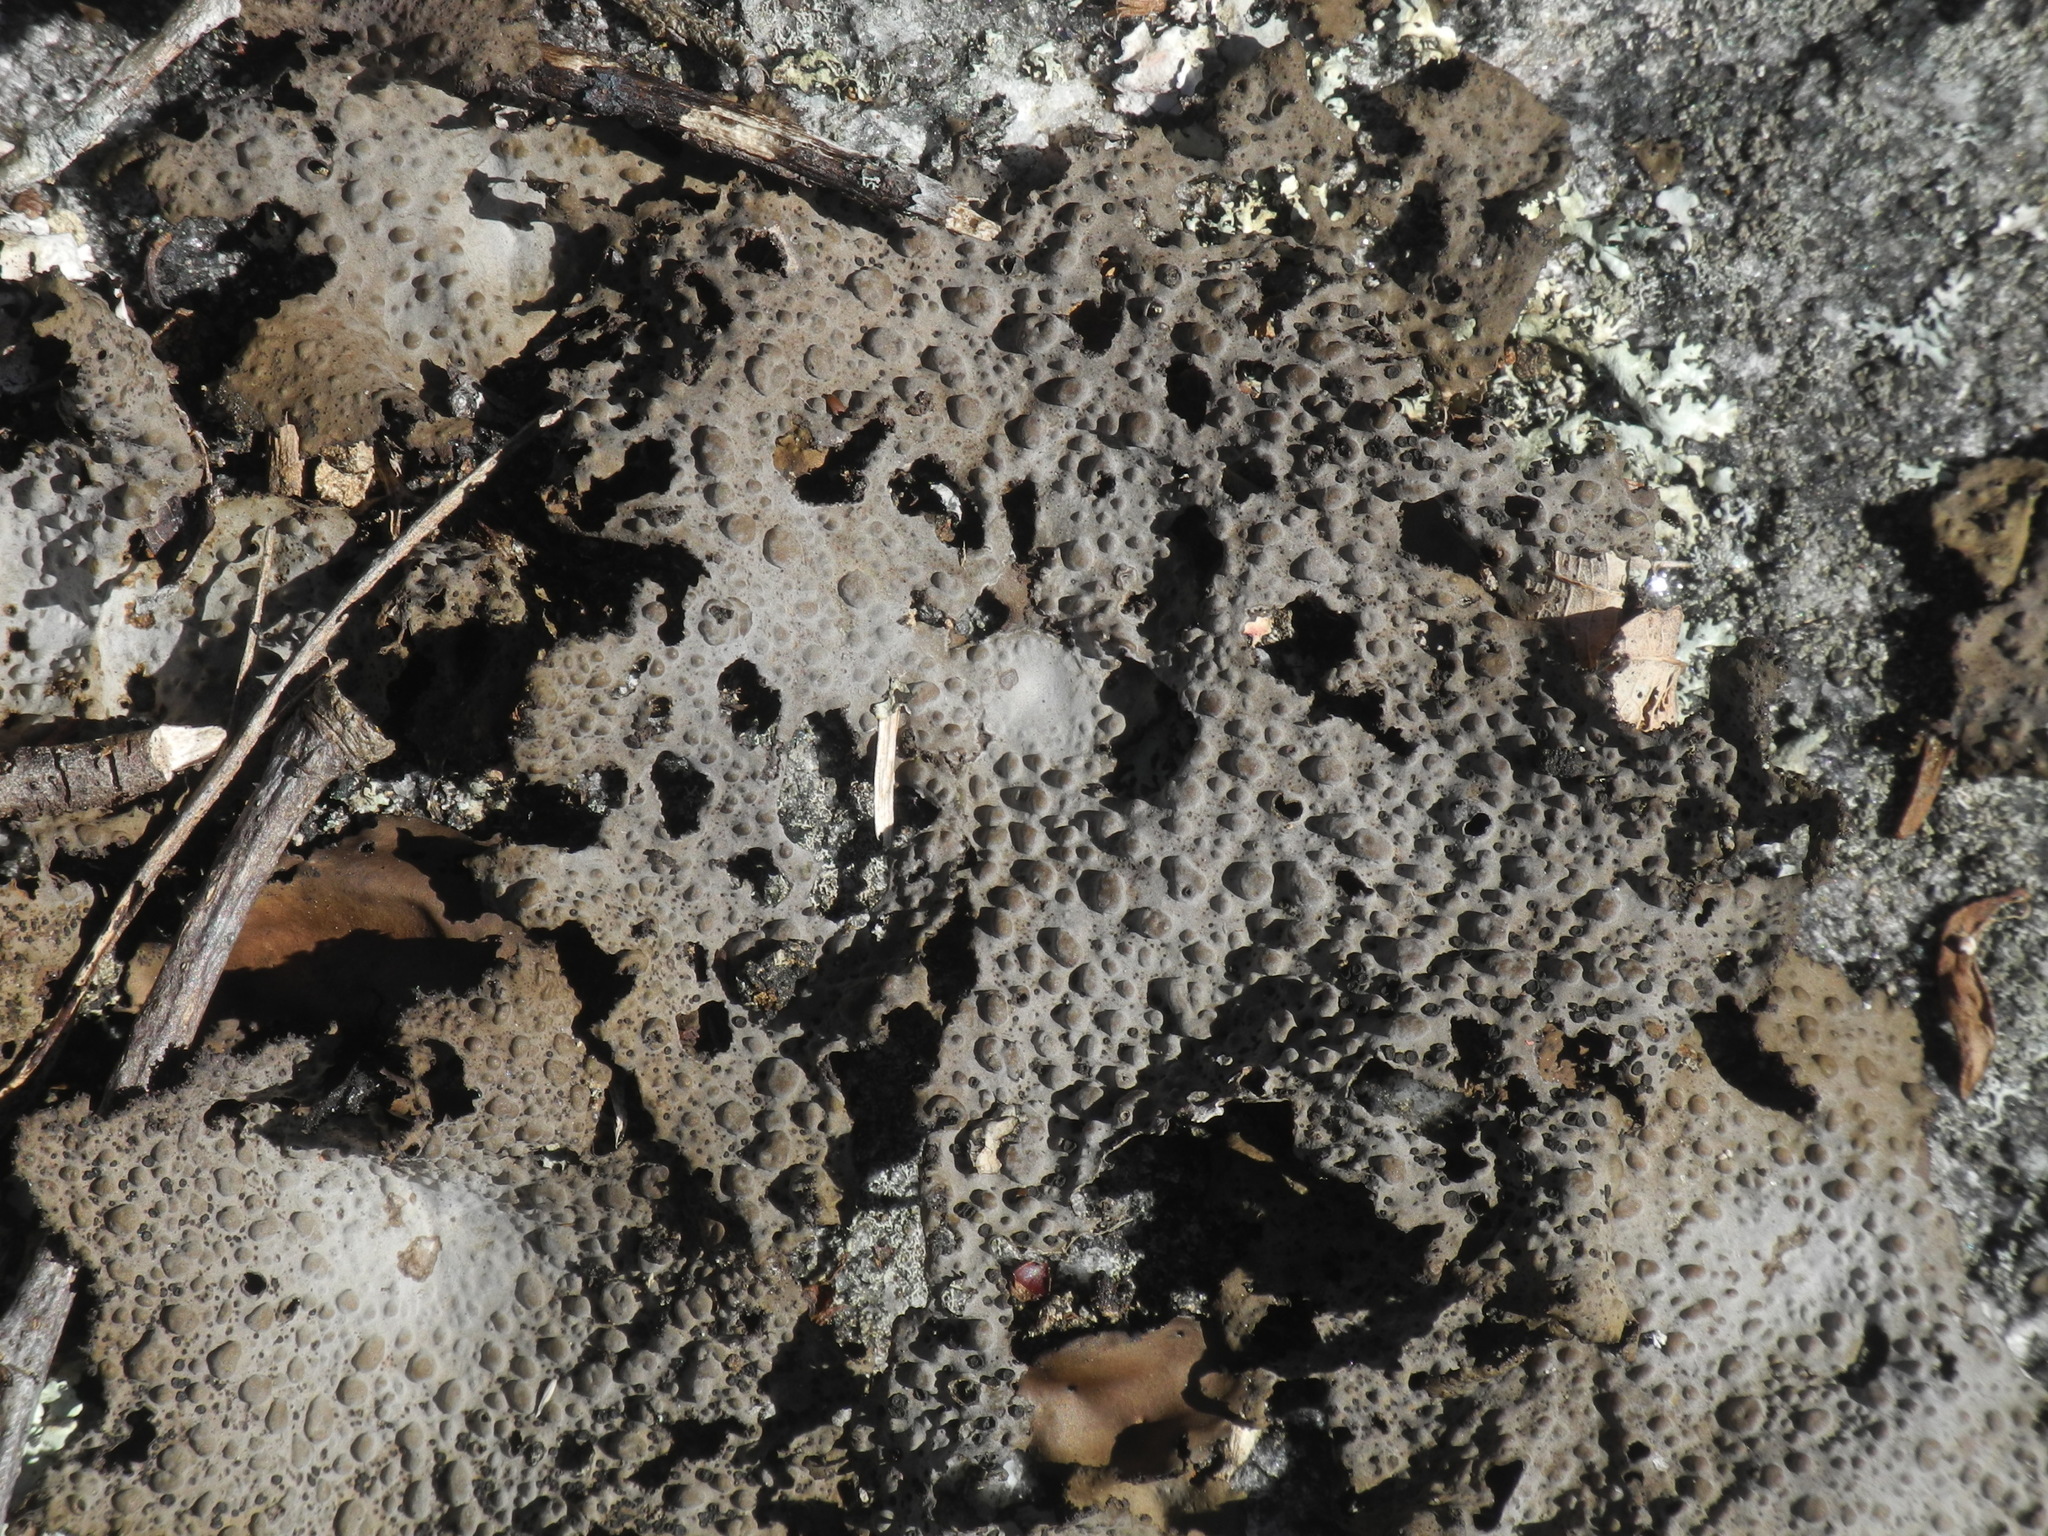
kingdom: Fungi
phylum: Ascomycota
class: Lecanoromycetes
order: Umbilicariales
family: Umbilicariaceae
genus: Lasallia
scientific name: Lasallia papulosa
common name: Common toadskin lichen
